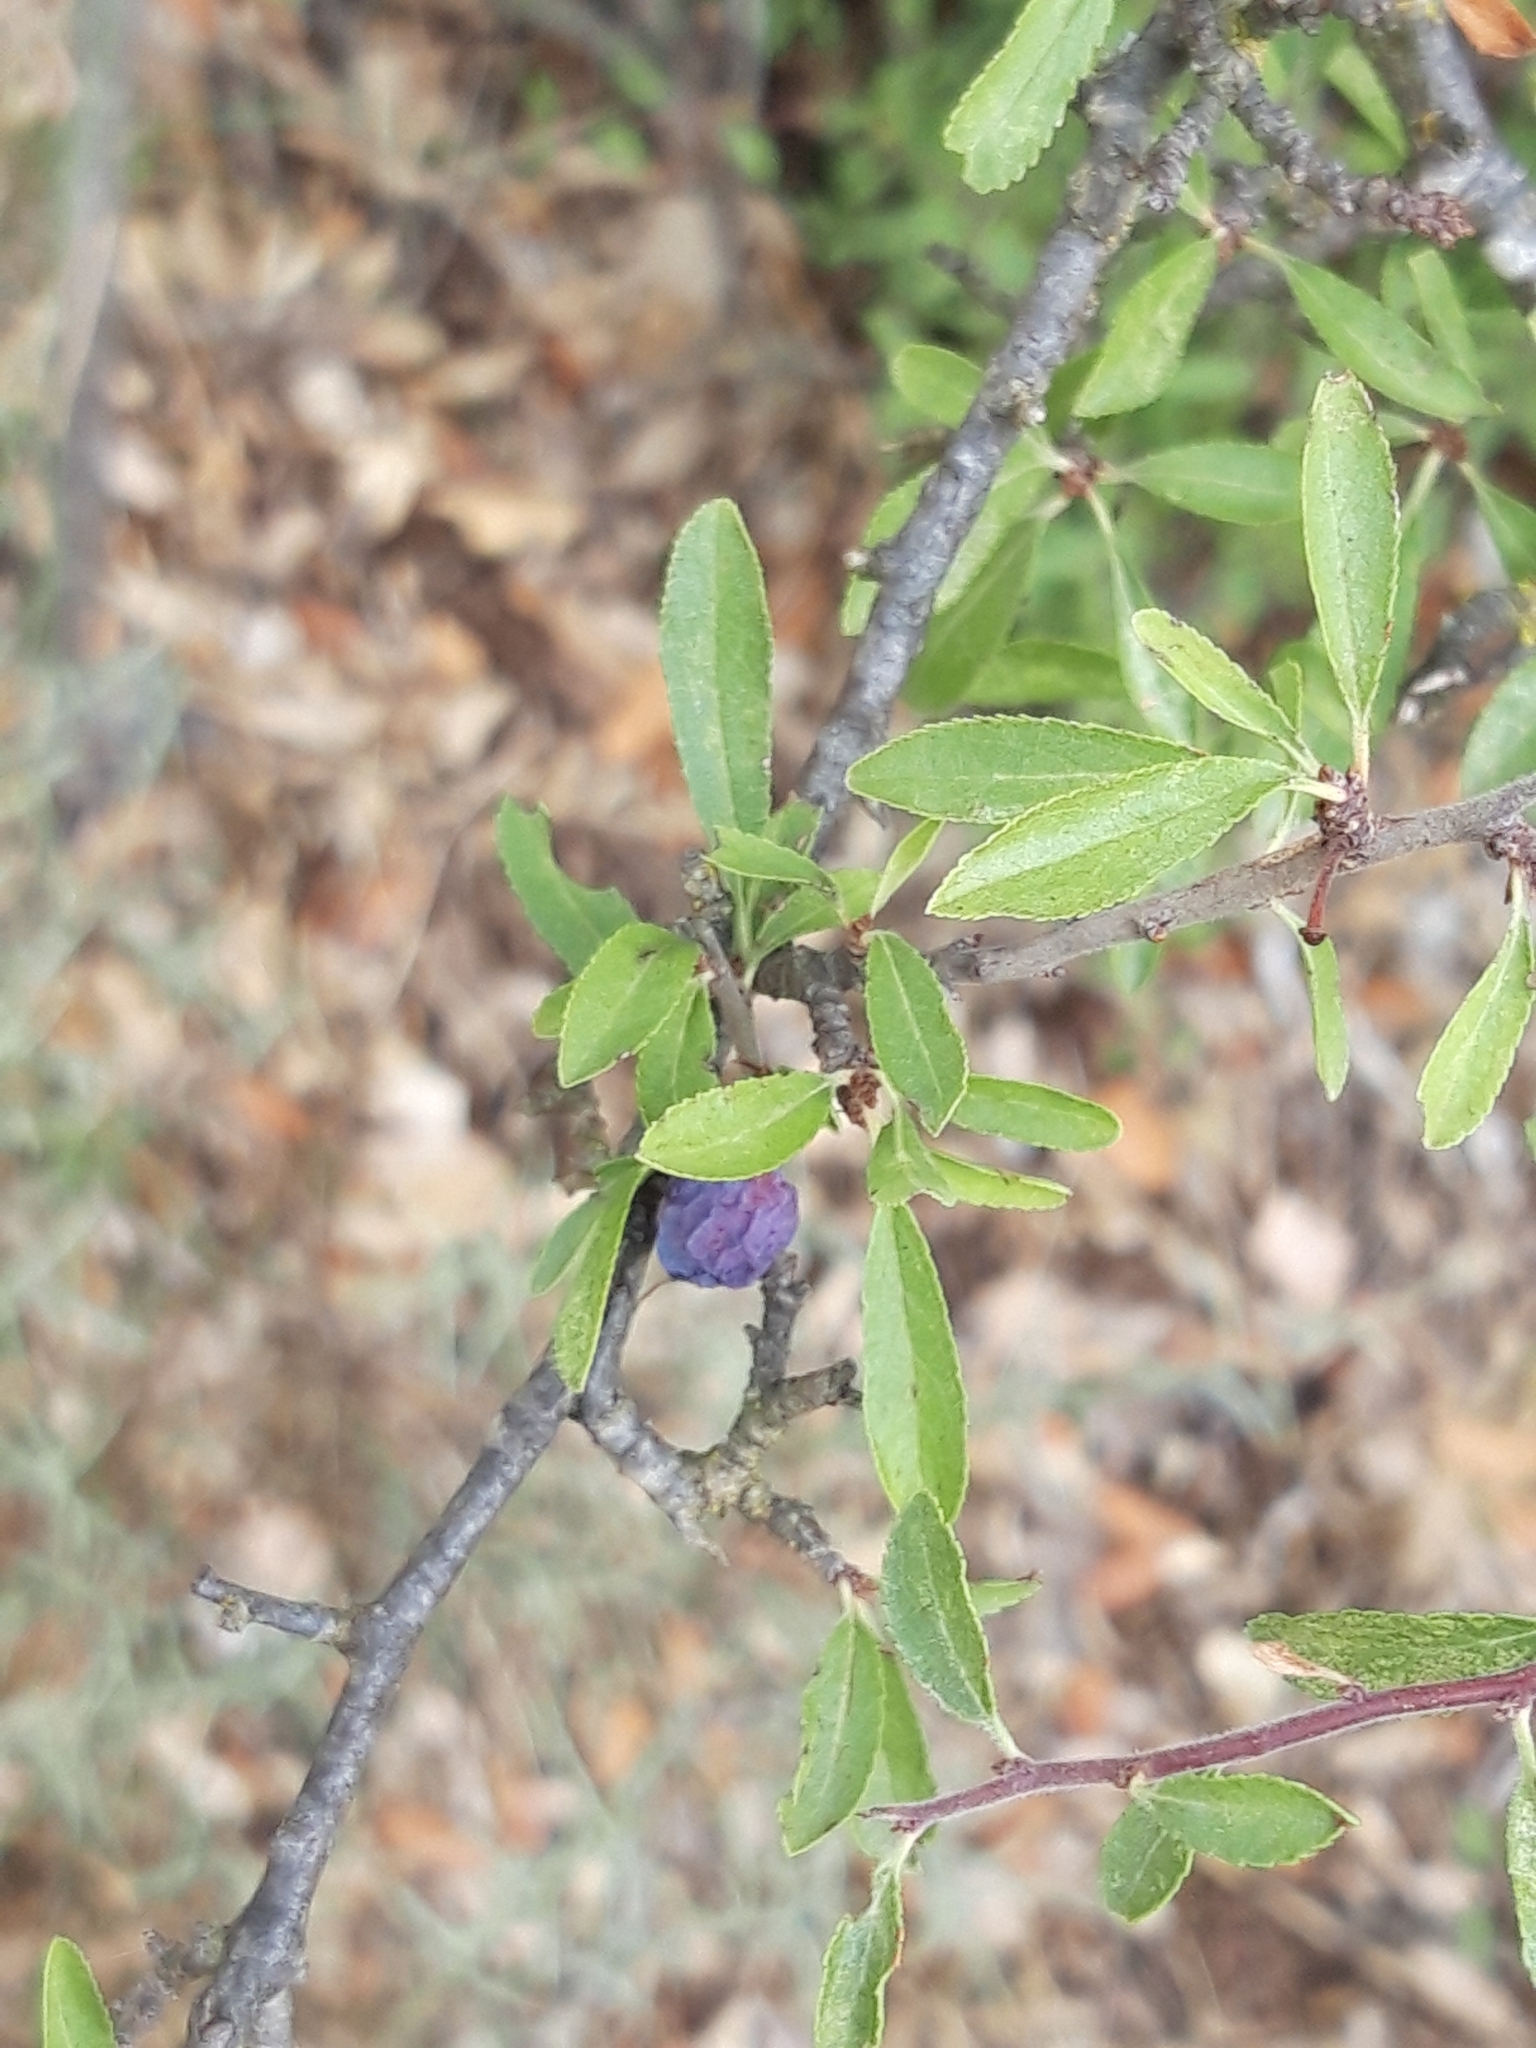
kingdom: Plantae
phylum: Tracheophyta
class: Magnoliopsida
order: Rosales
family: Rosaceae
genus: Prunus
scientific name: Prunus spinosa
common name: Blackthorn
